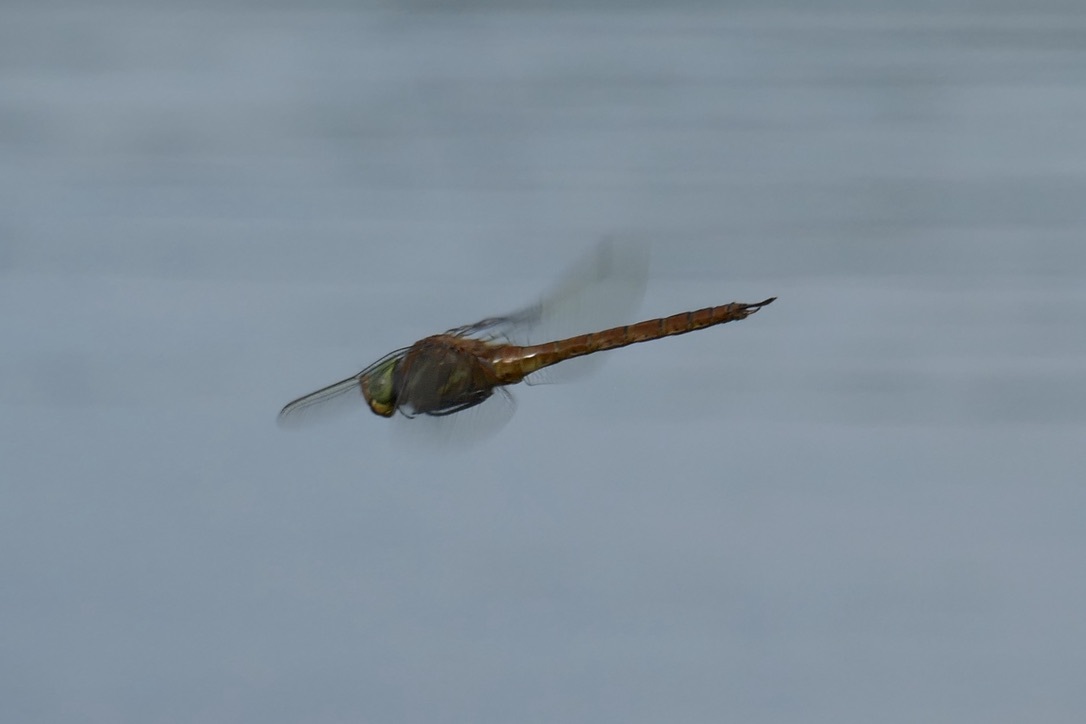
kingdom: Animalia
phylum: Arthropoda
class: Insecta
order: Odonata
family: Aeshnidae
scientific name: Aeshnidae
